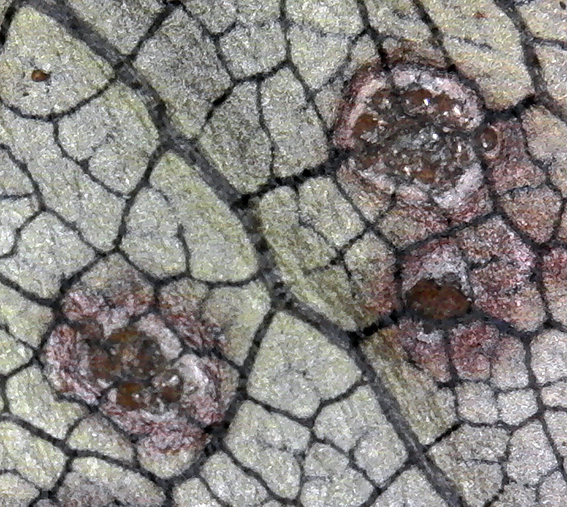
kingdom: Fungi
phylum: Basidiomycota
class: Pucciniomycetes
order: Pucciniales
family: Pucciniaceae
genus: Puccinia
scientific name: Puccinia coprosmae
